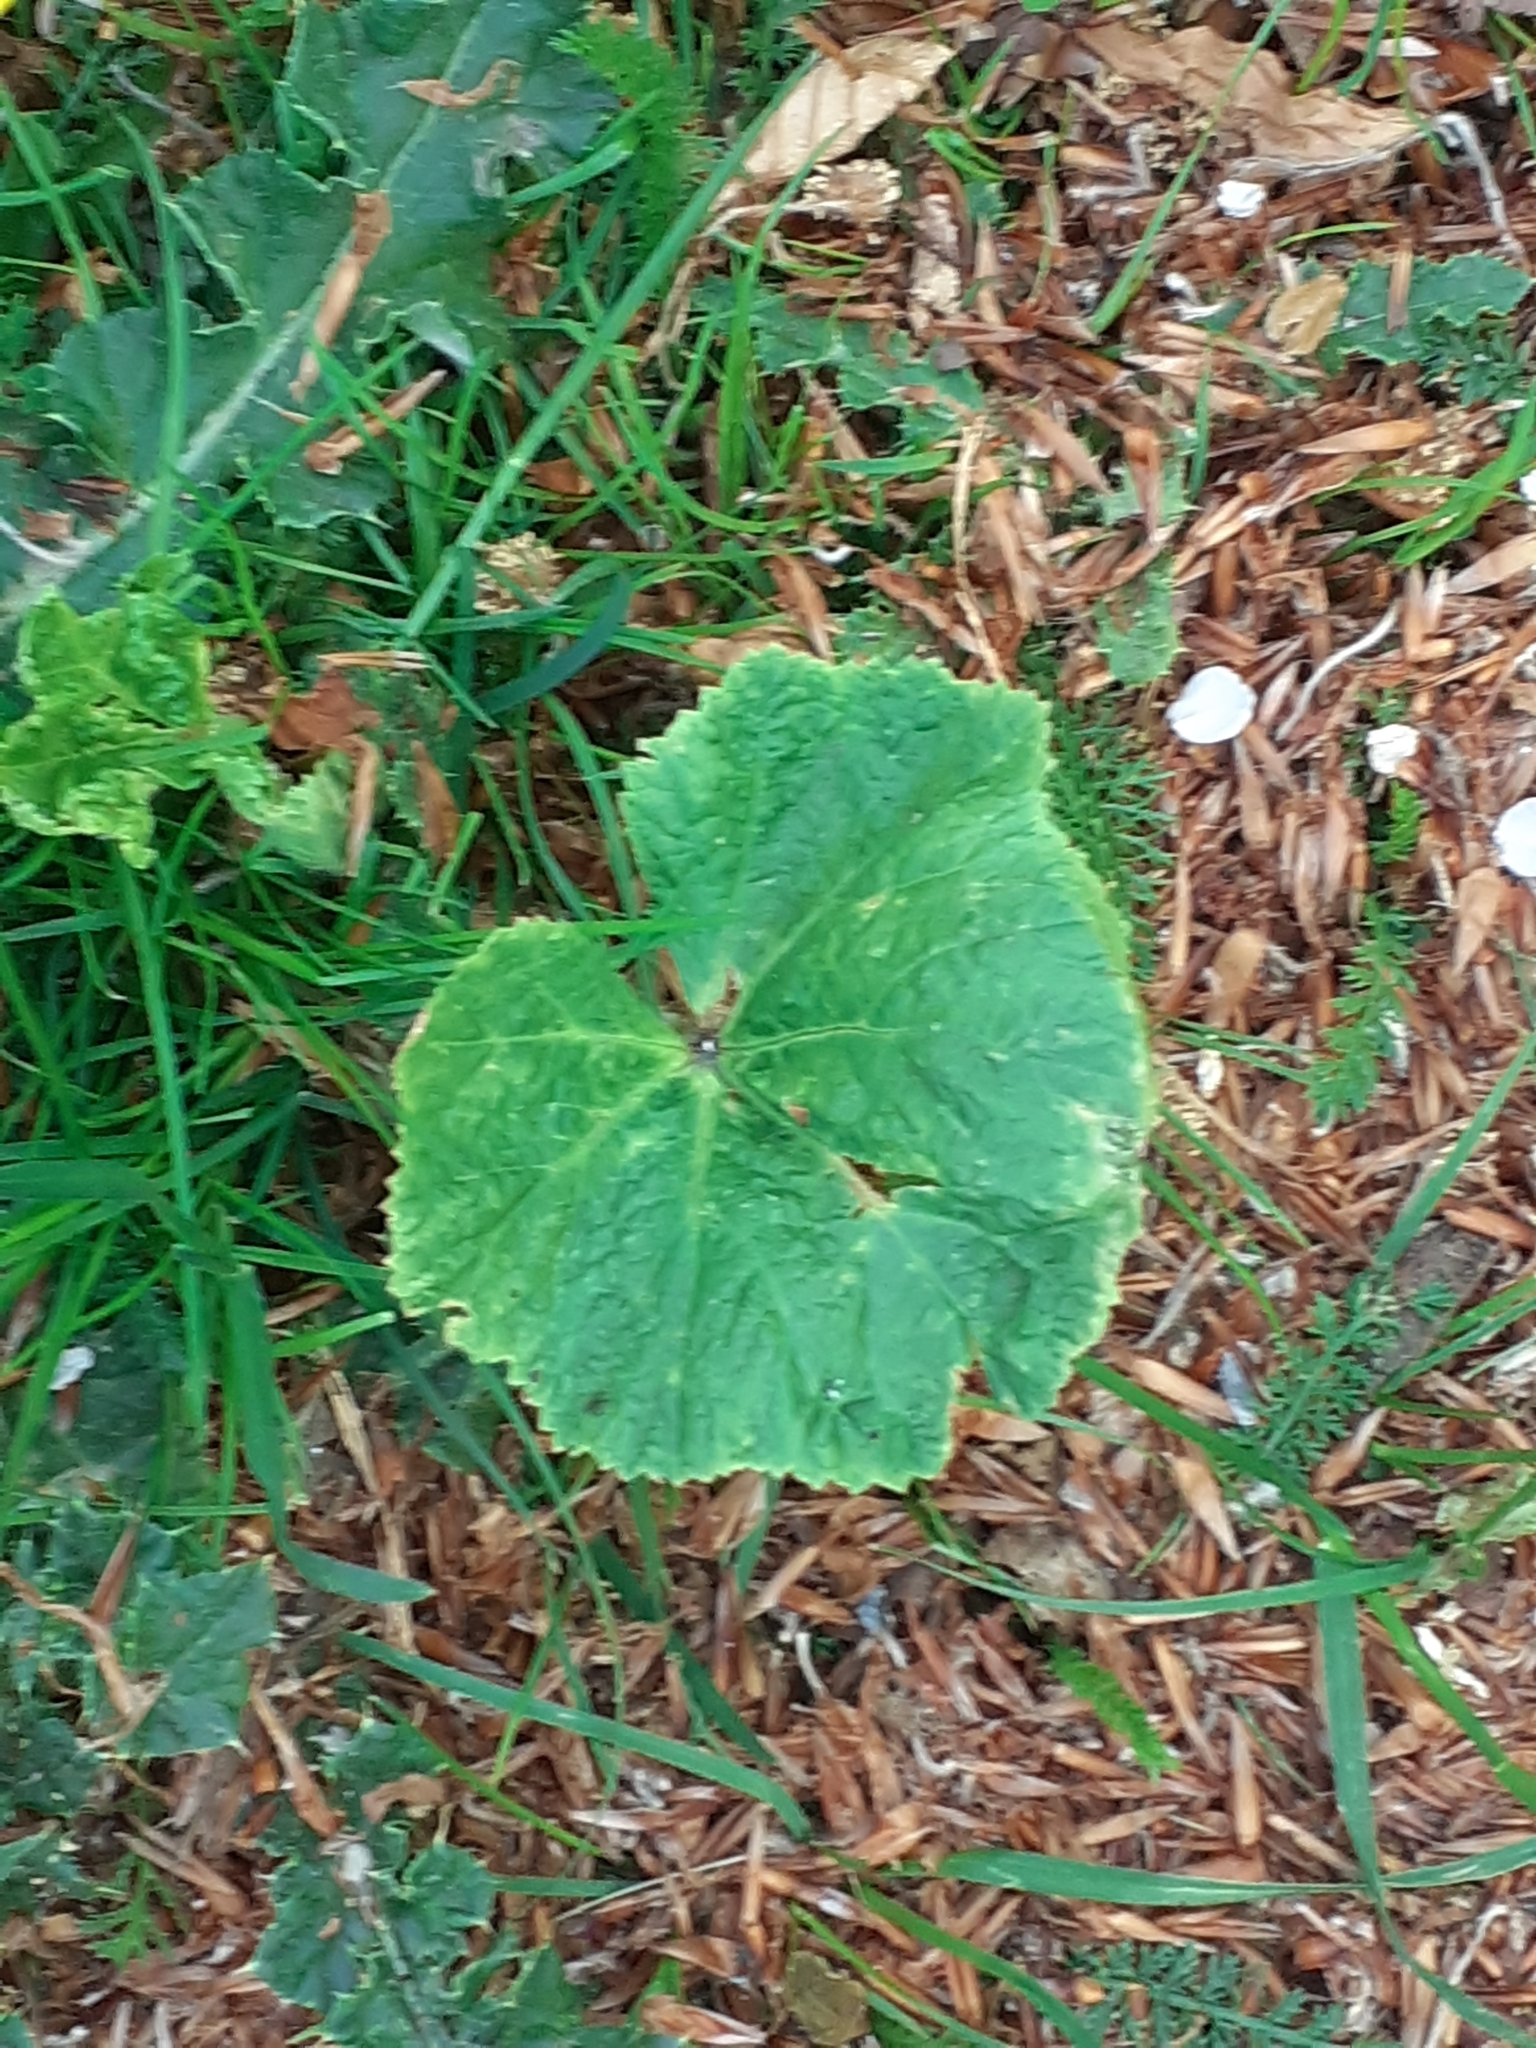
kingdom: Plantae
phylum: Tracheophyta
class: Magnoliopsida
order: Malvales
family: Malvaceae
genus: Alcea
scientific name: Alcea rosea
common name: Hollyhock
